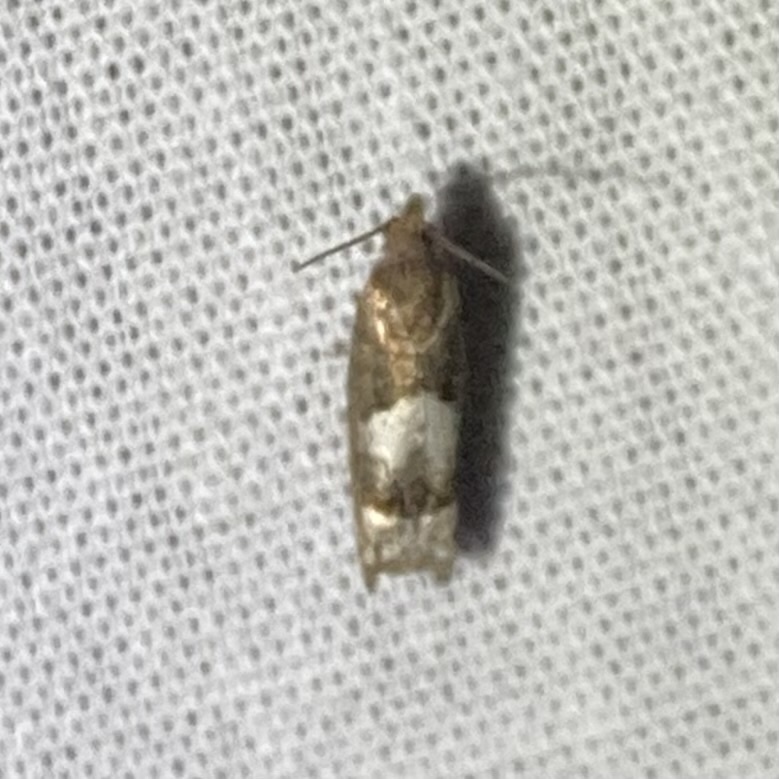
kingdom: Animalia
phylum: Arthropoda
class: Insecta
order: Lepidoptera
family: Tortricidae
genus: Eucosma
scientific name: Eucosma parmatana
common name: Aster eucosma moth
